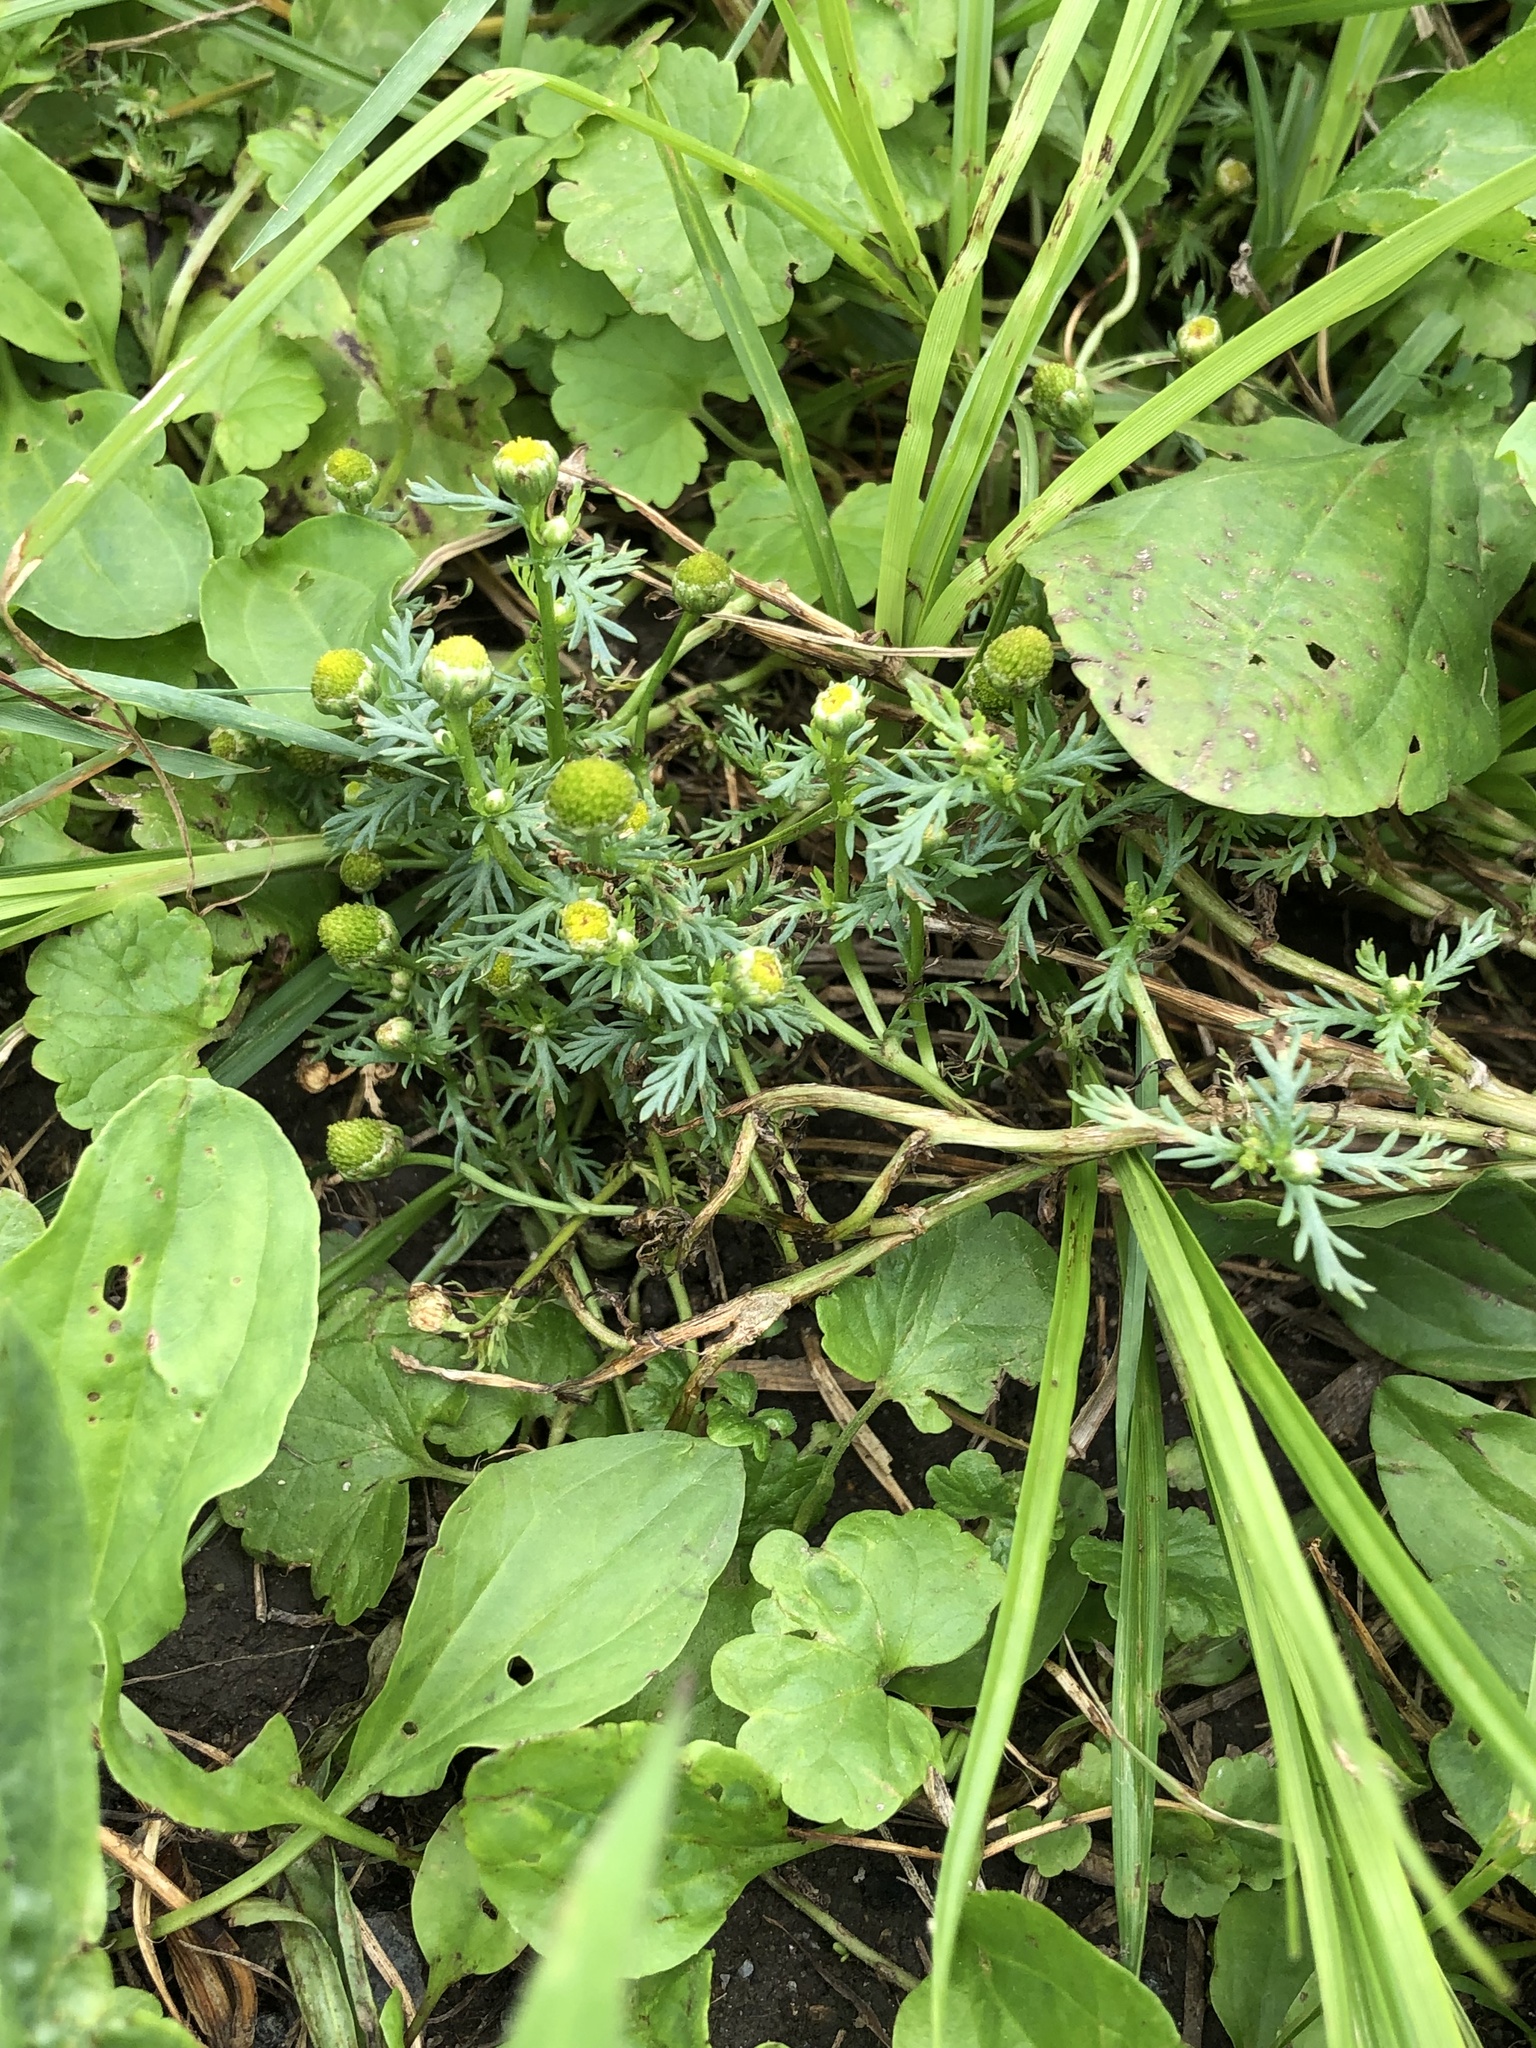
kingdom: Plantae
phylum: Tracheophyta
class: Magnoliopsida
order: Asterales
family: Asteraceae
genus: Matricaria
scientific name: Matricaria discoidea
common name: Disc mayweed
